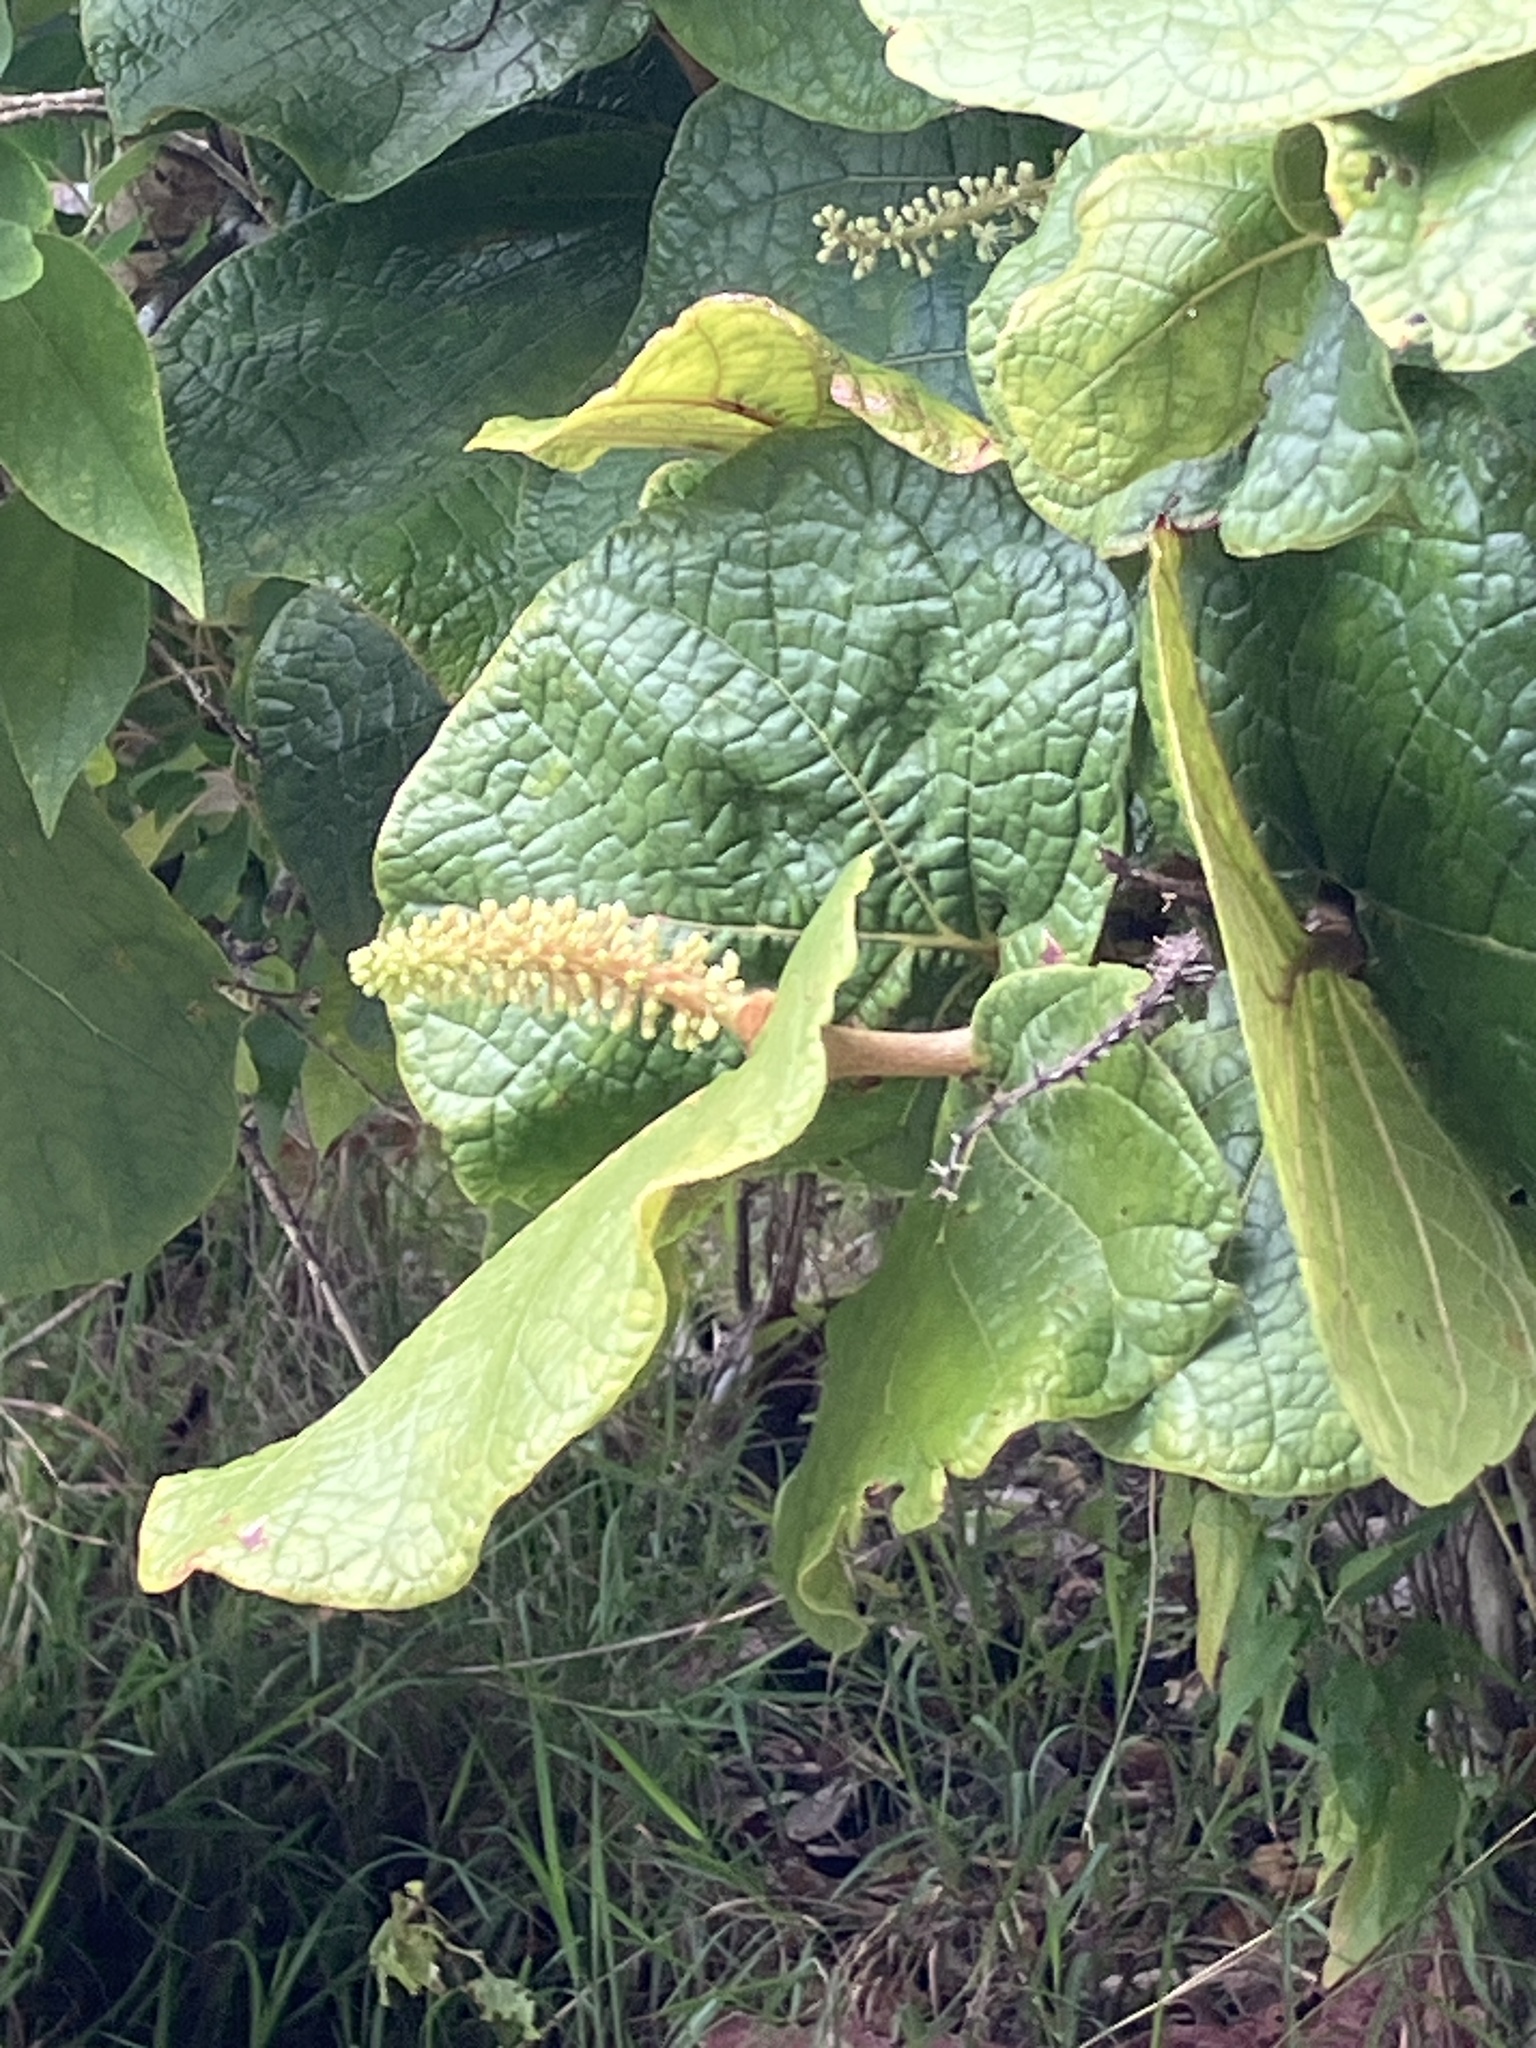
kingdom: Plantae
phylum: Tracheophyta
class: Magnoliopsida
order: Caryophyllales
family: Polygonaceae
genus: Coccoloba
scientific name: Coccoloba pubescens
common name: Mountain-grape
